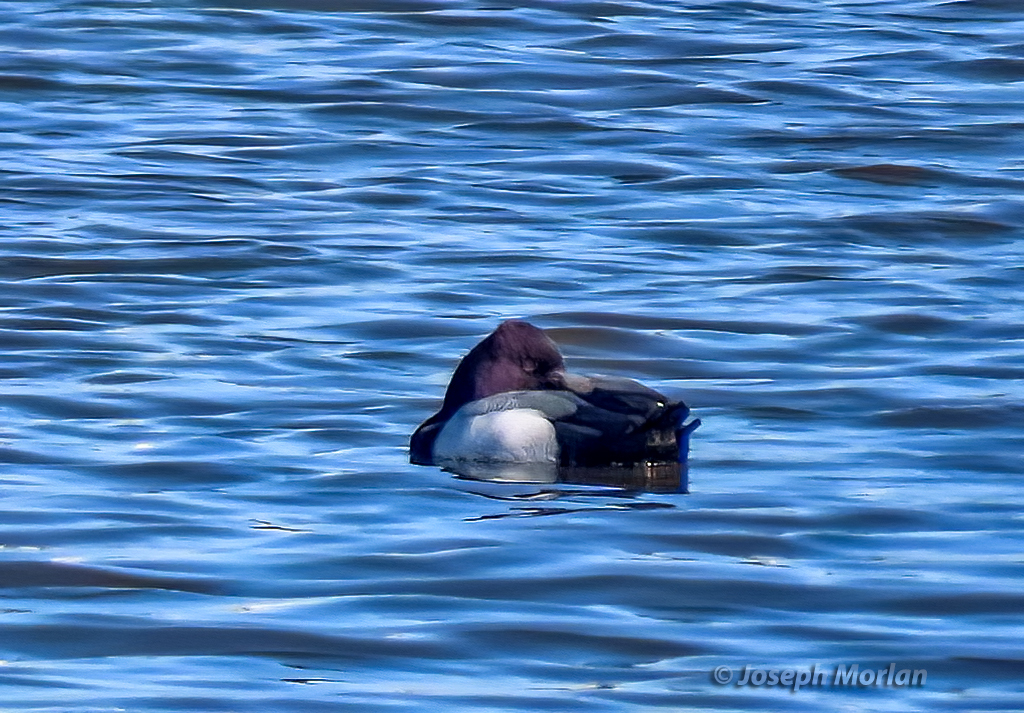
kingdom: Animalia
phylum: Chordata
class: Aves
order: Anseriformes
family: Anatidae
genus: Aythya
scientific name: Aythya affinis
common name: Lesser scaup
